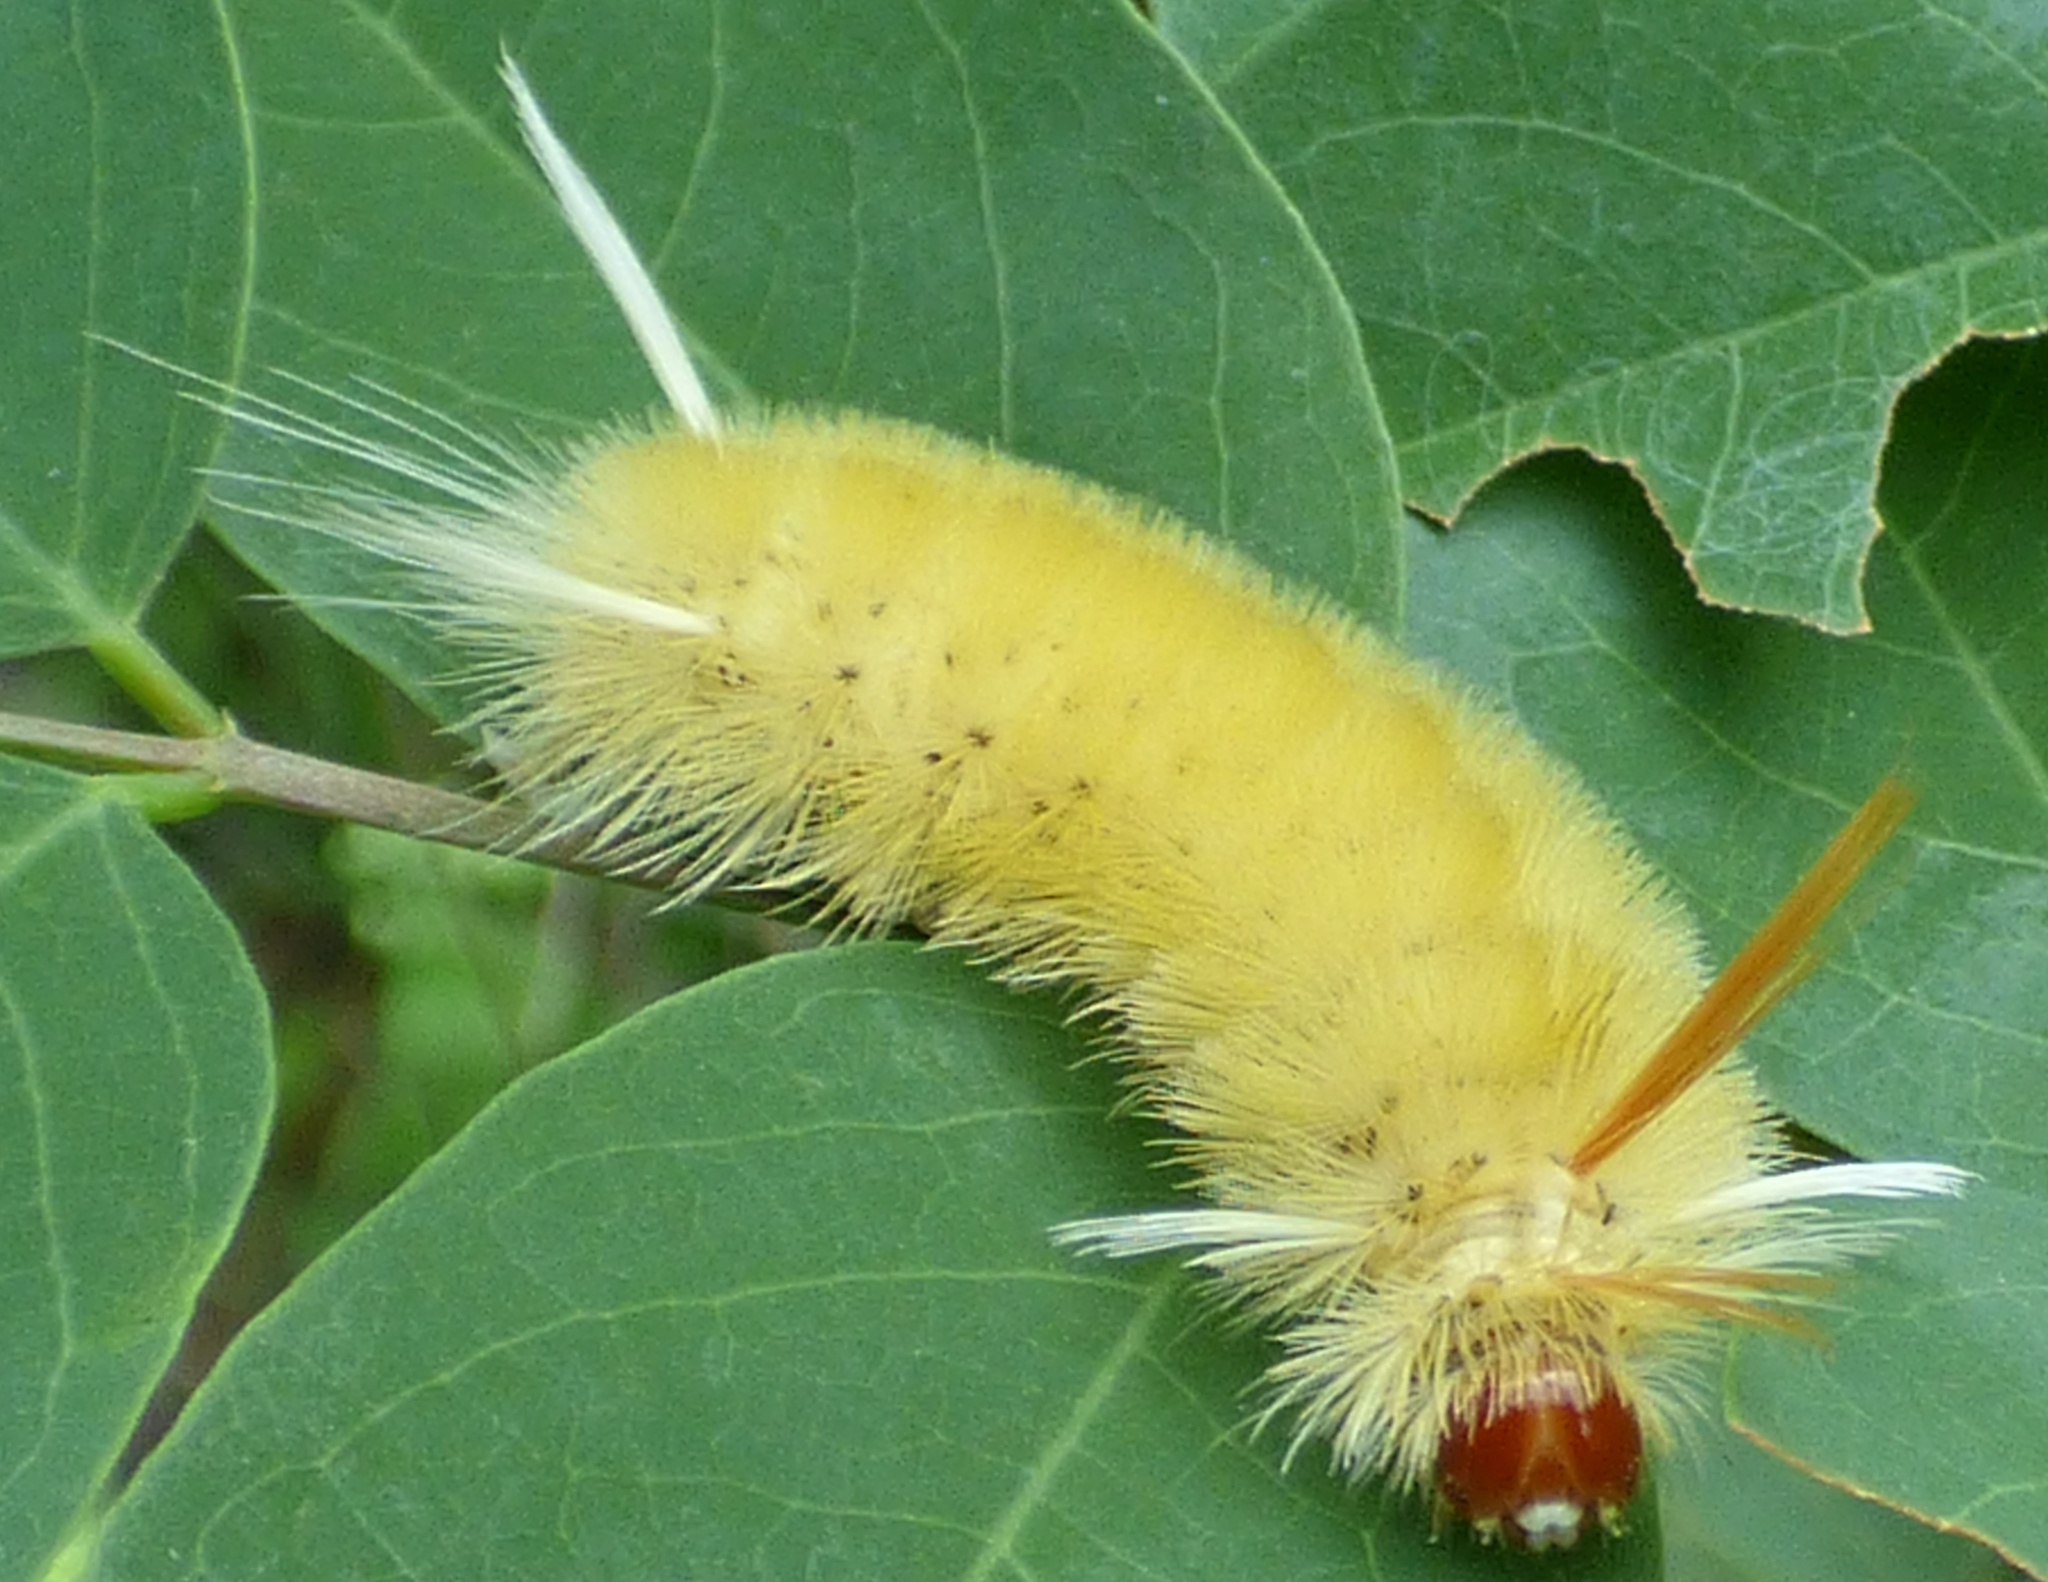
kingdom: Animalia
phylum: Arthropoda
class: Insecta
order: Lepidoptera
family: Erebidae
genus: Halysidota
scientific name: Halysidota harrisii
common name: Sycamore tussock moth
